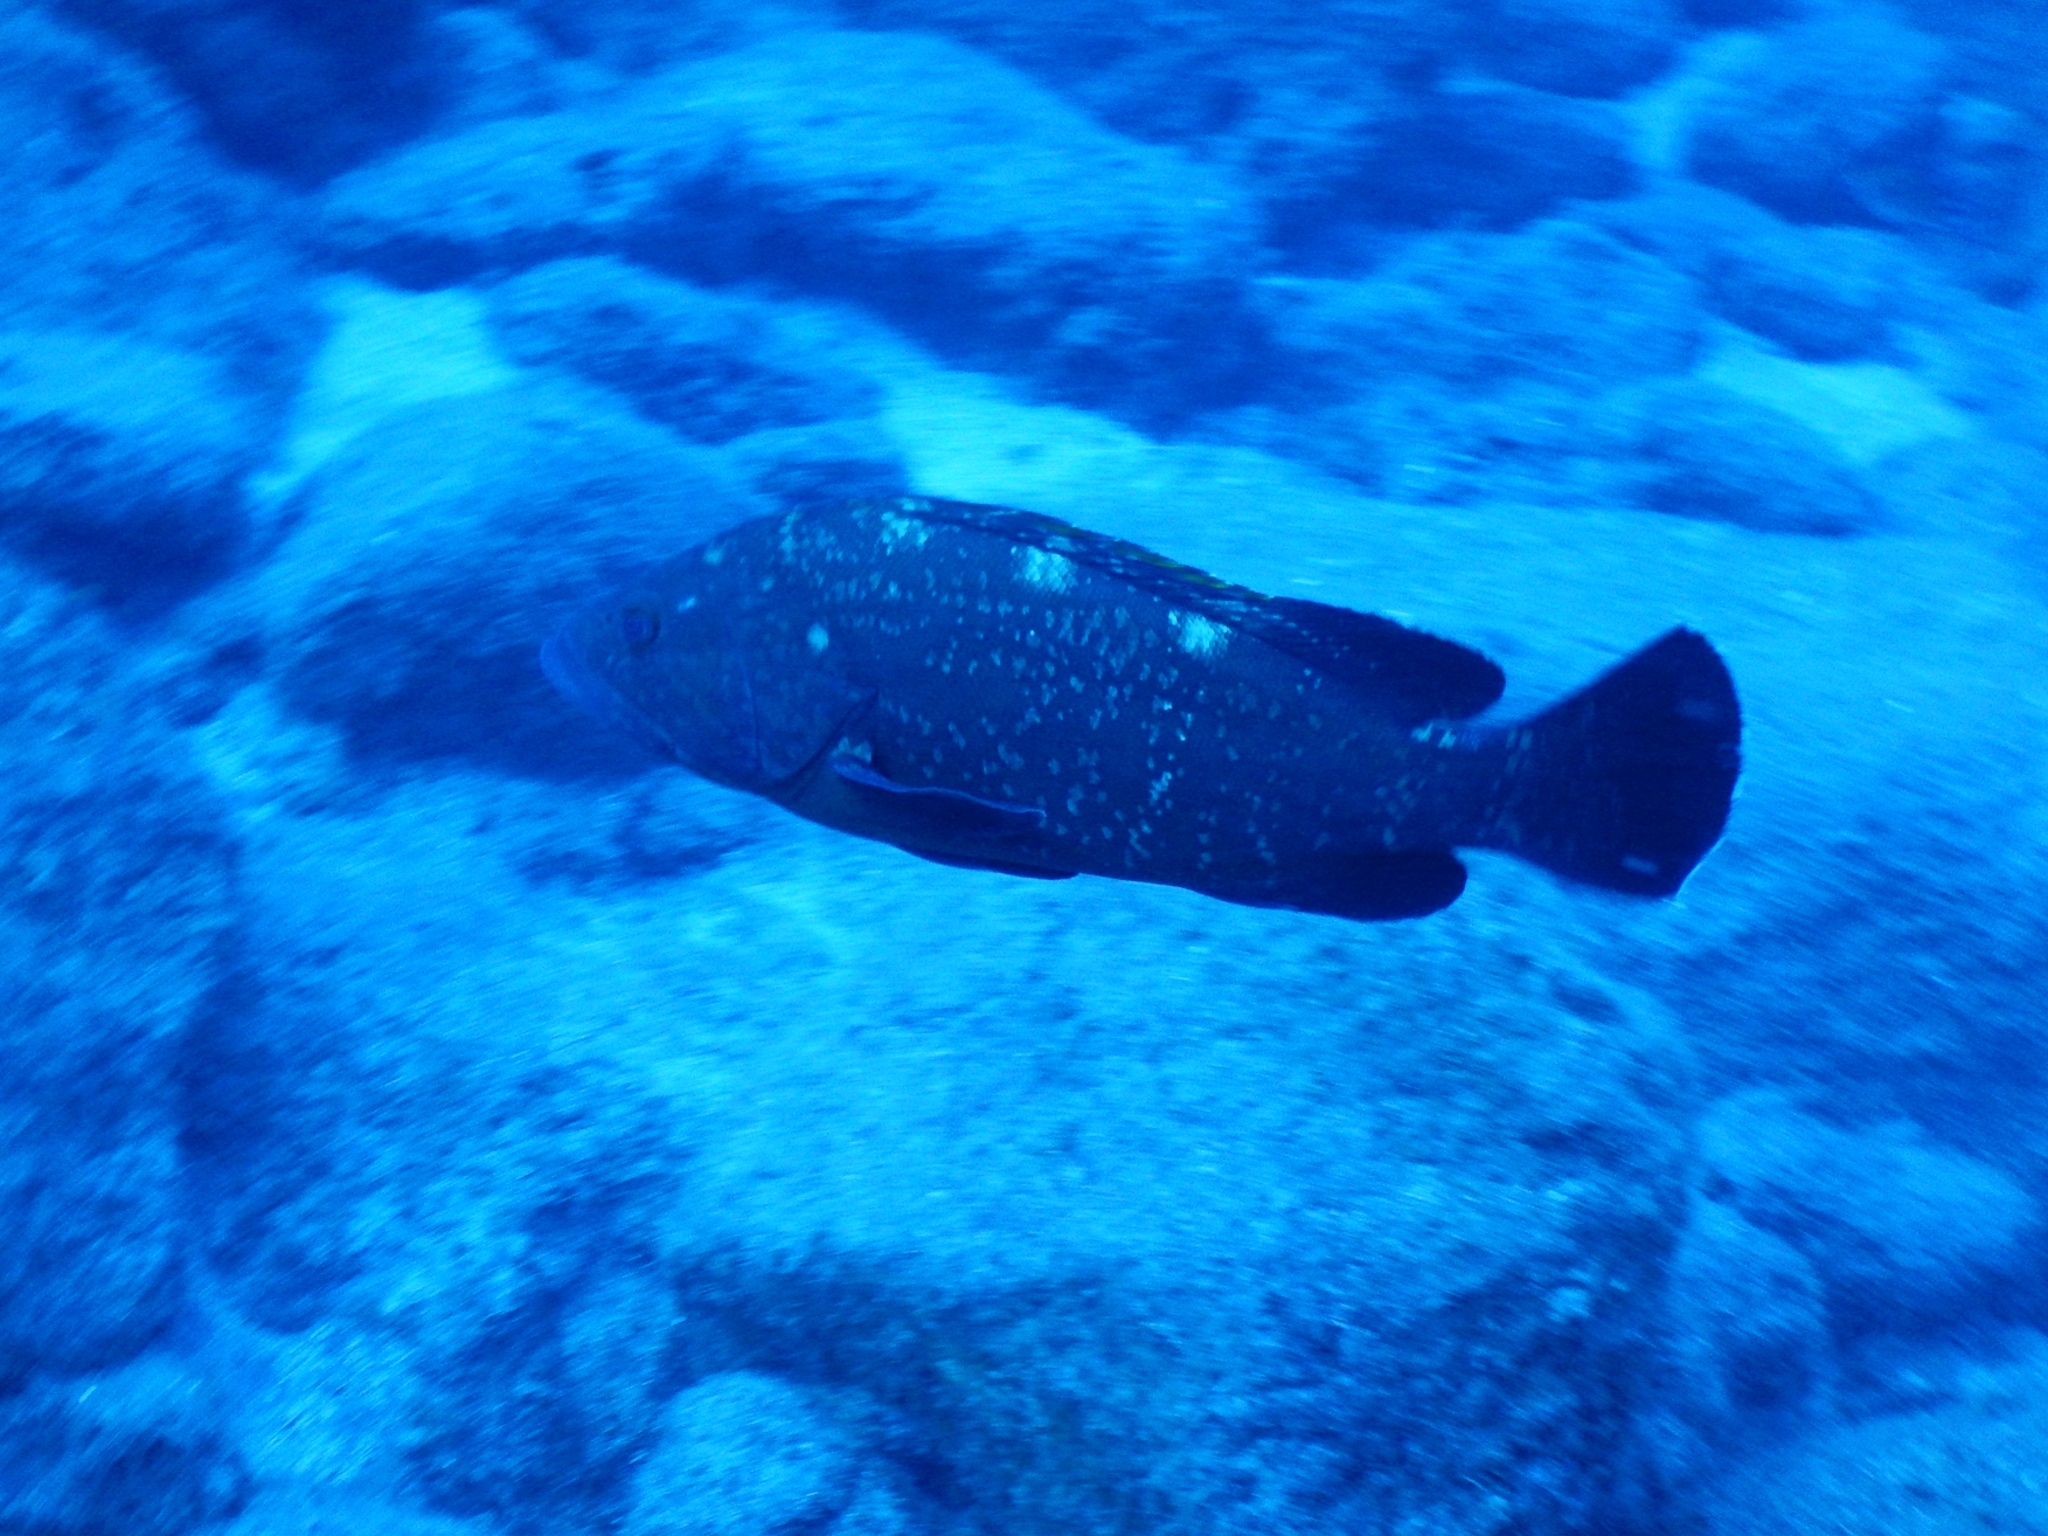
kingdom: Animalia
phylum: Chordata
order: Perciformes
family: Serranidae
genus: Epinephelus
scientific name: Epinephelus marginatus
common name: Dusky grouper
